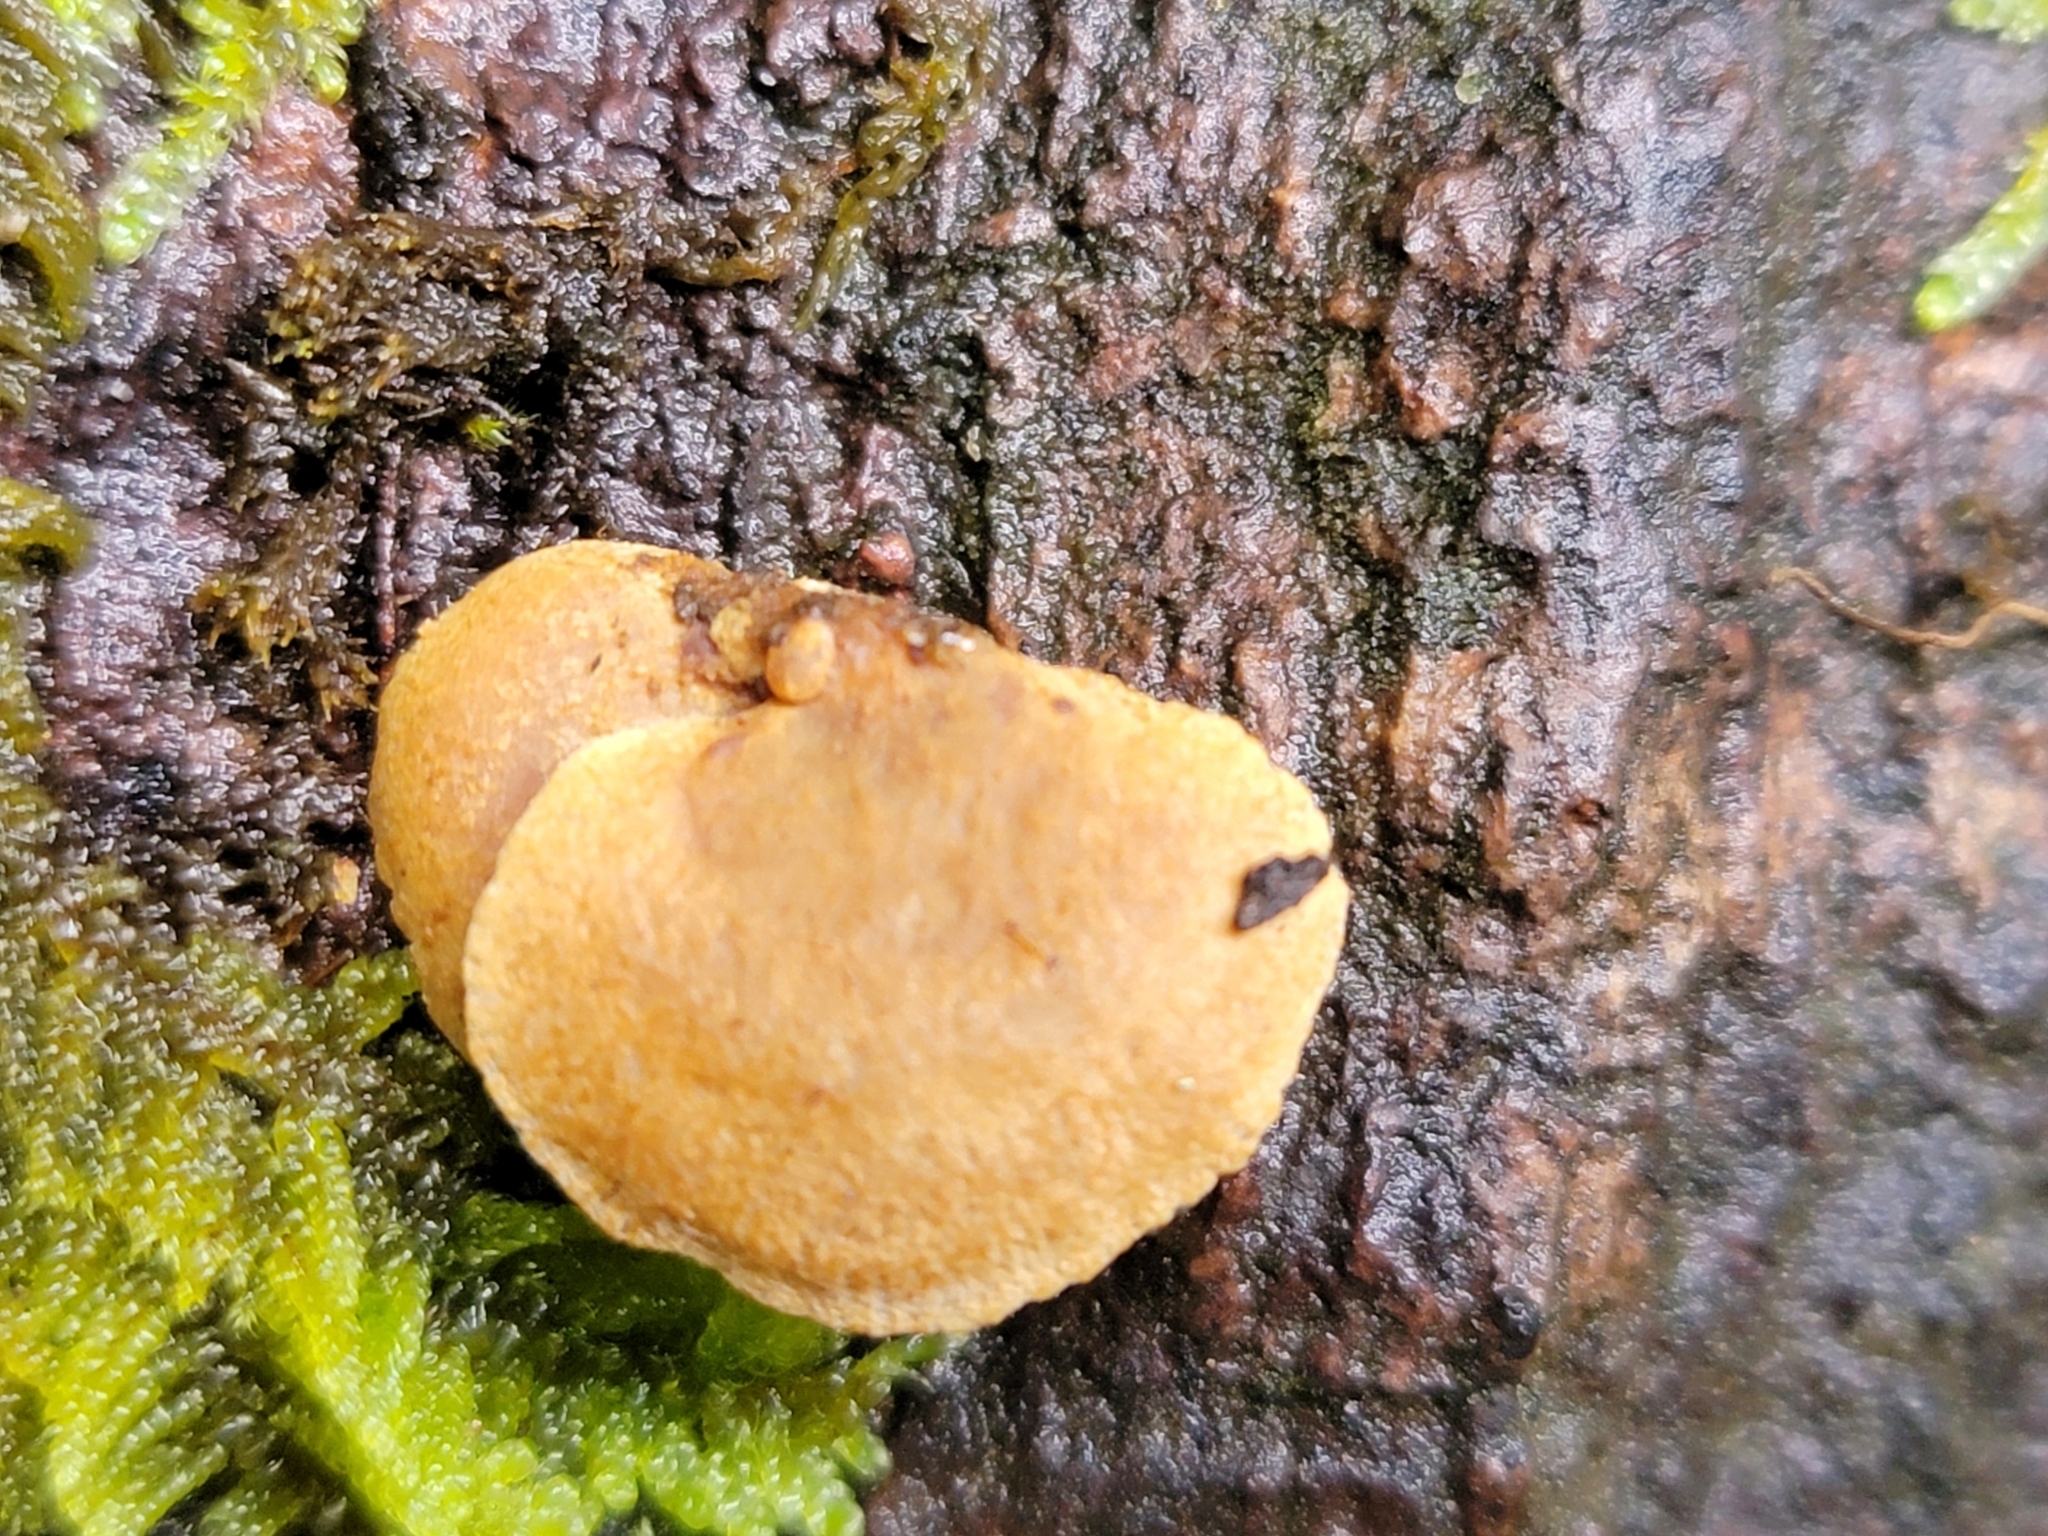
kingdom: Fungi
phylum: Basidiomycota
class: Agaricomycetes
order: Agaricales
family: Mycenaceae
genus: Panellus
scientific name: Panellus stipticus
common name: Bitter oysterling
